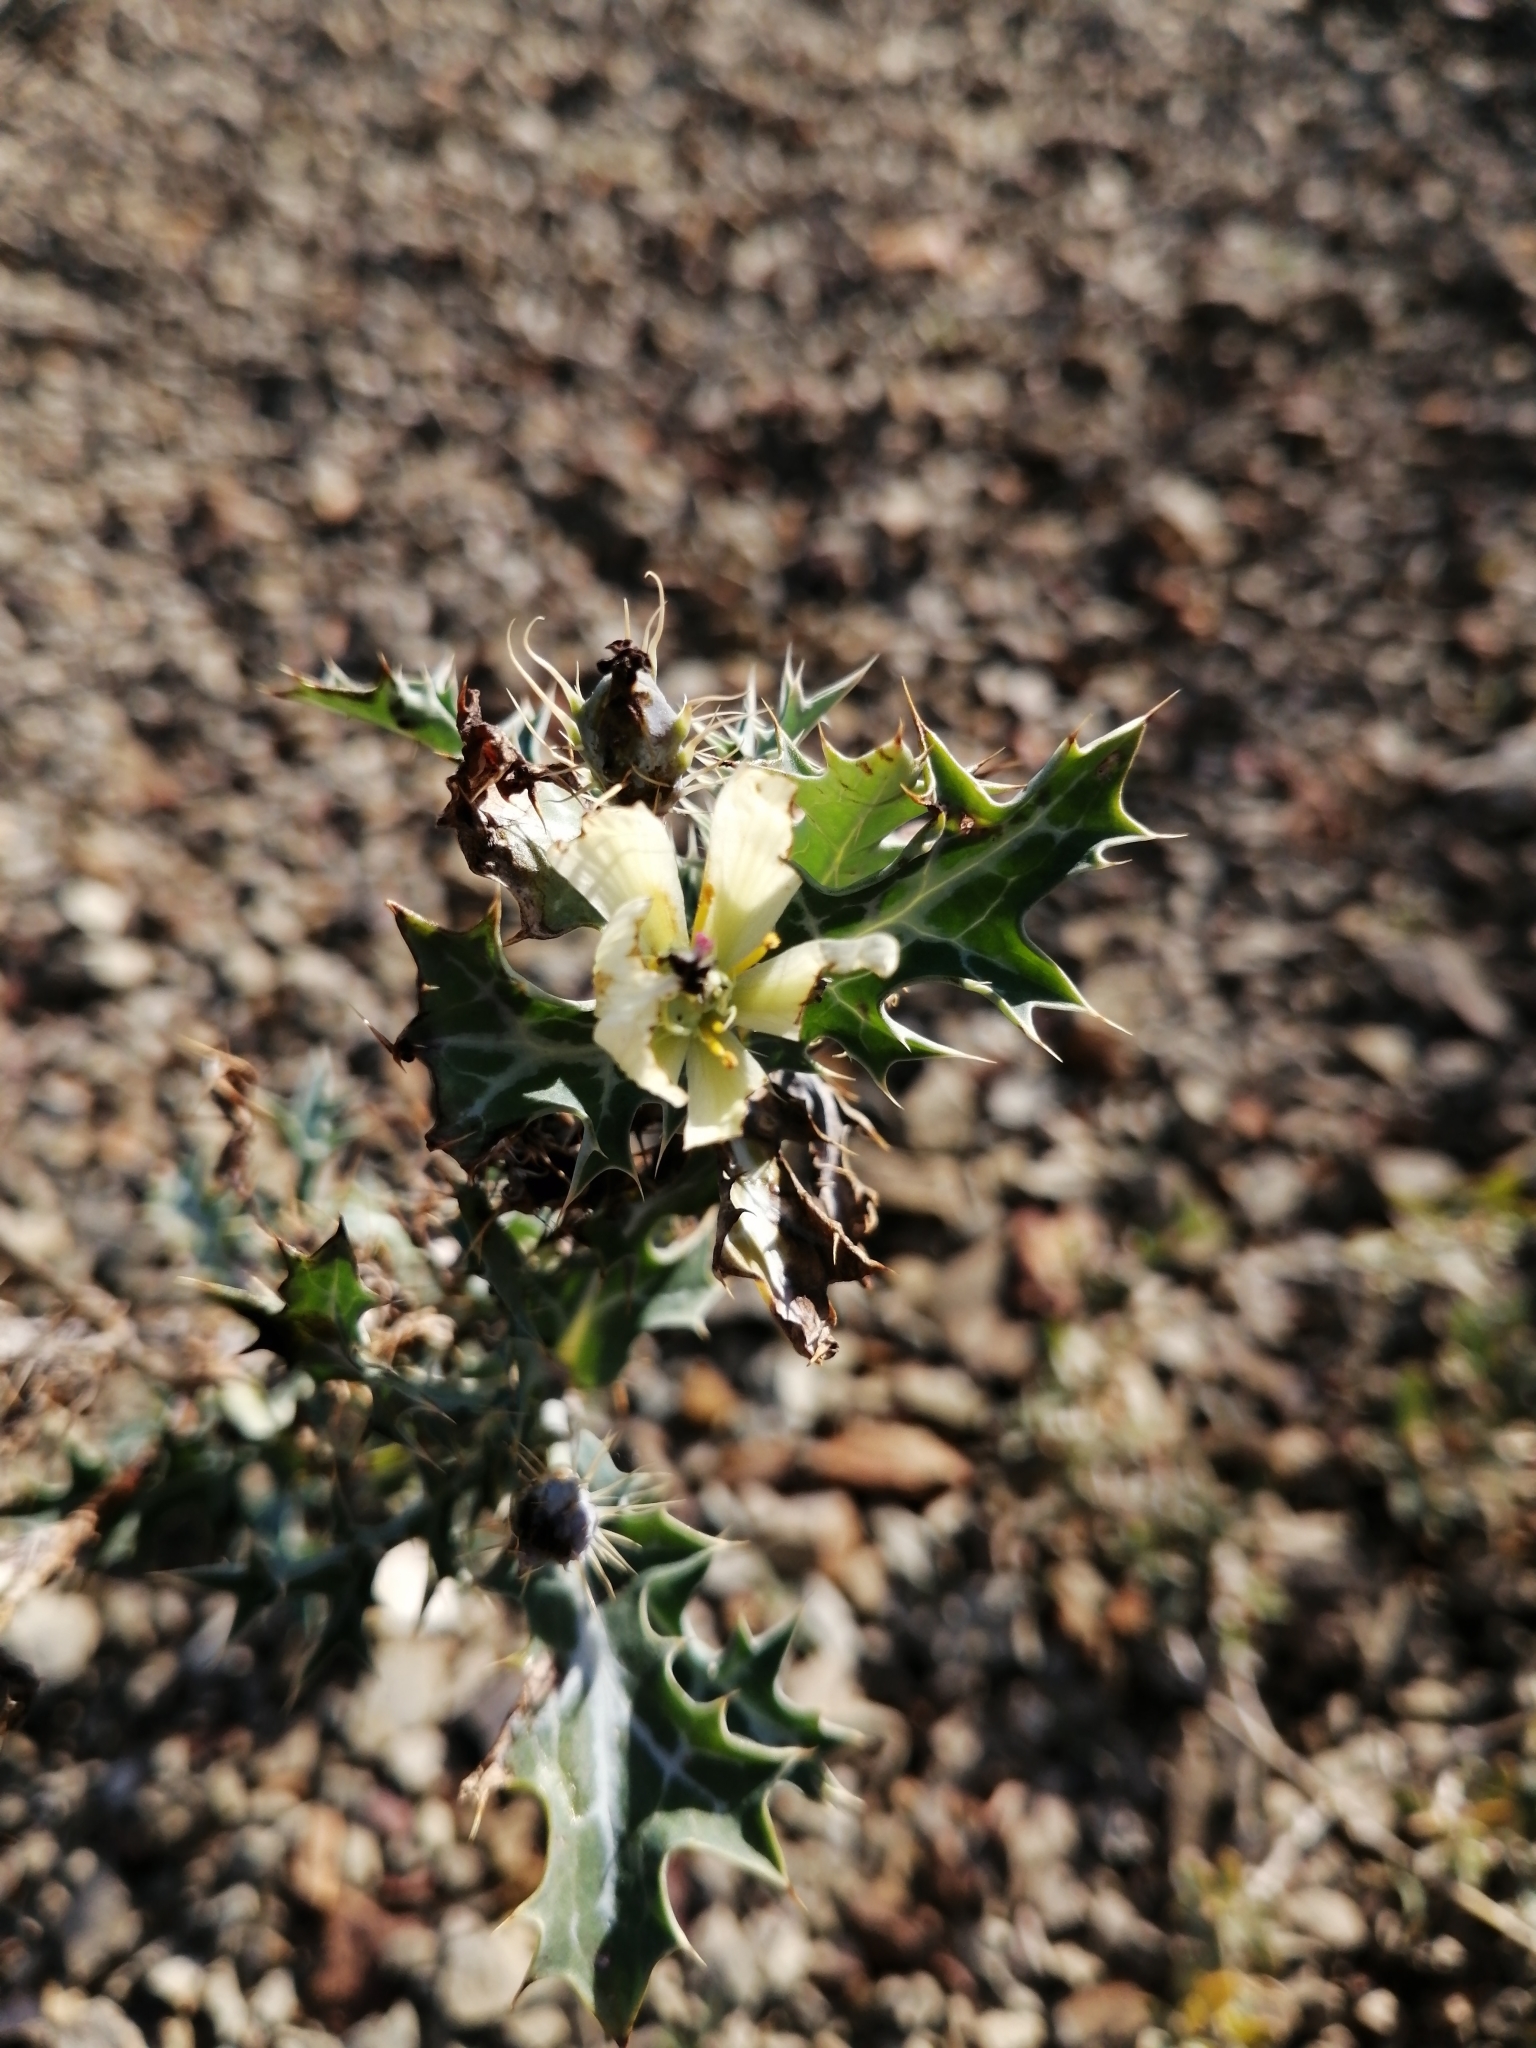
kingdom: Plantae
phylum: Tracheophyta
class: Magnoliopsida
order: Ranunculales
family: Papaveraceae
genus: Argemone
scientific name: Argemone ochroleuca
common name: White-flower mexican-poppy
